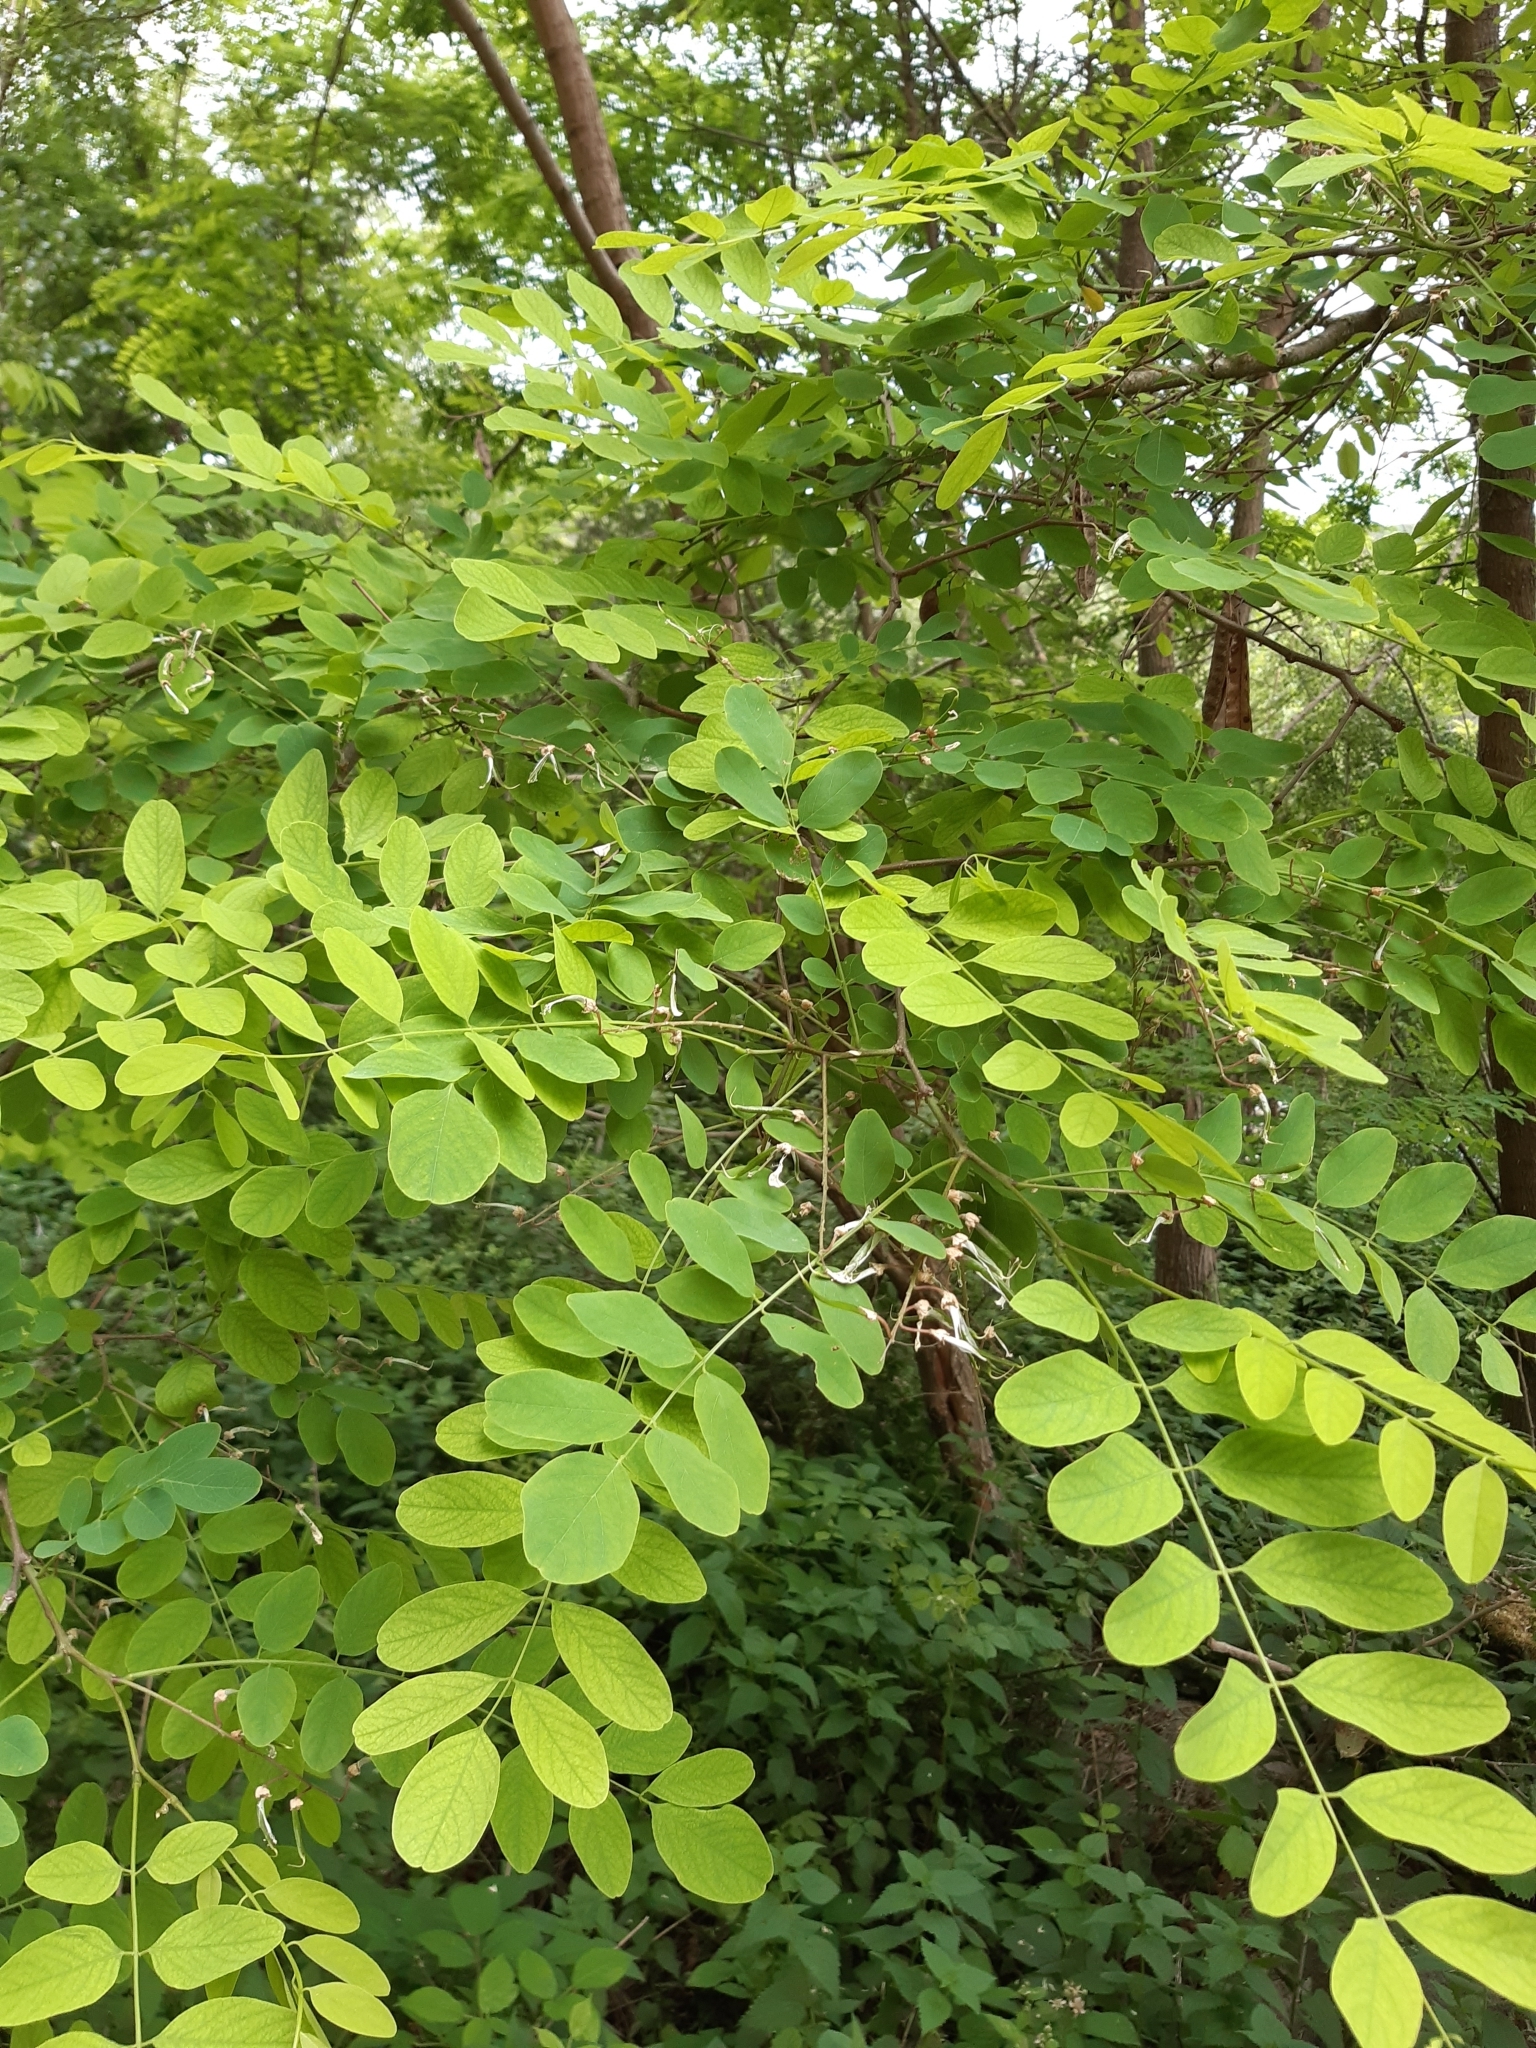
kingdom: Plantae
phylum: Tracheophyta
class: Magnoliopsida
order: Fabales
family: Fabaceae
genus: Robinia
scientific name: Robinia pseudoacacia
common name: Black locust
